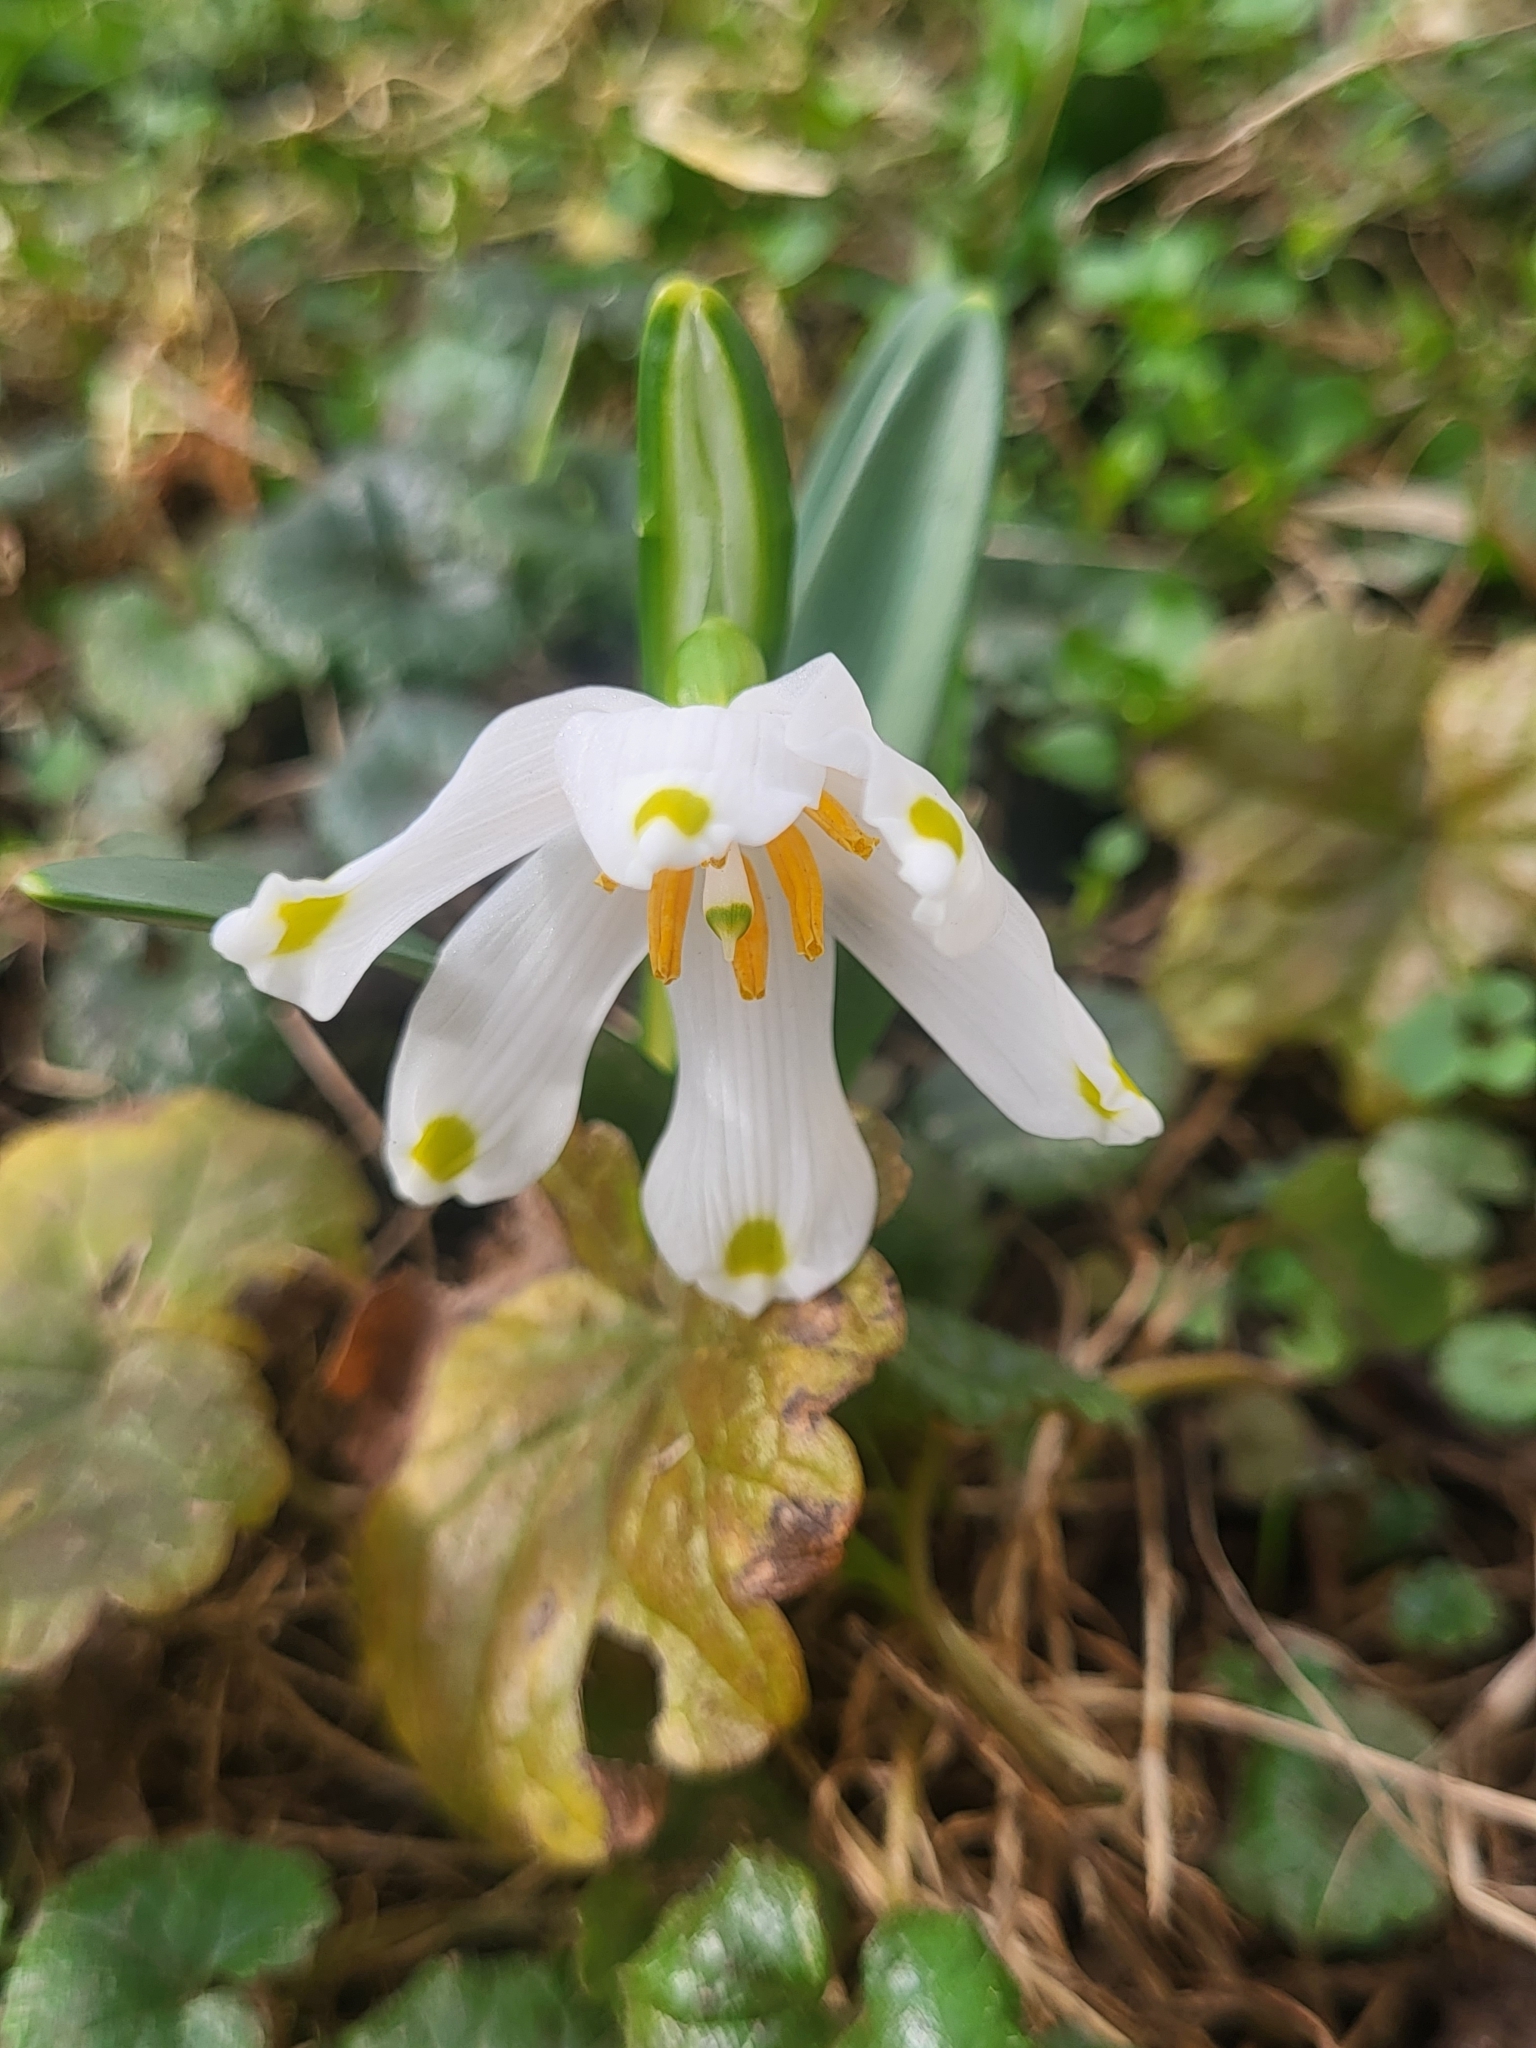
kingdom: Plantae
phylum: Tracheophyta
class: Liliopsida
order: Asparagales
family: Amaryllidaceae
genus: Leucojum
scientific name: Leucojum vernum
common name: Spring snowflake
